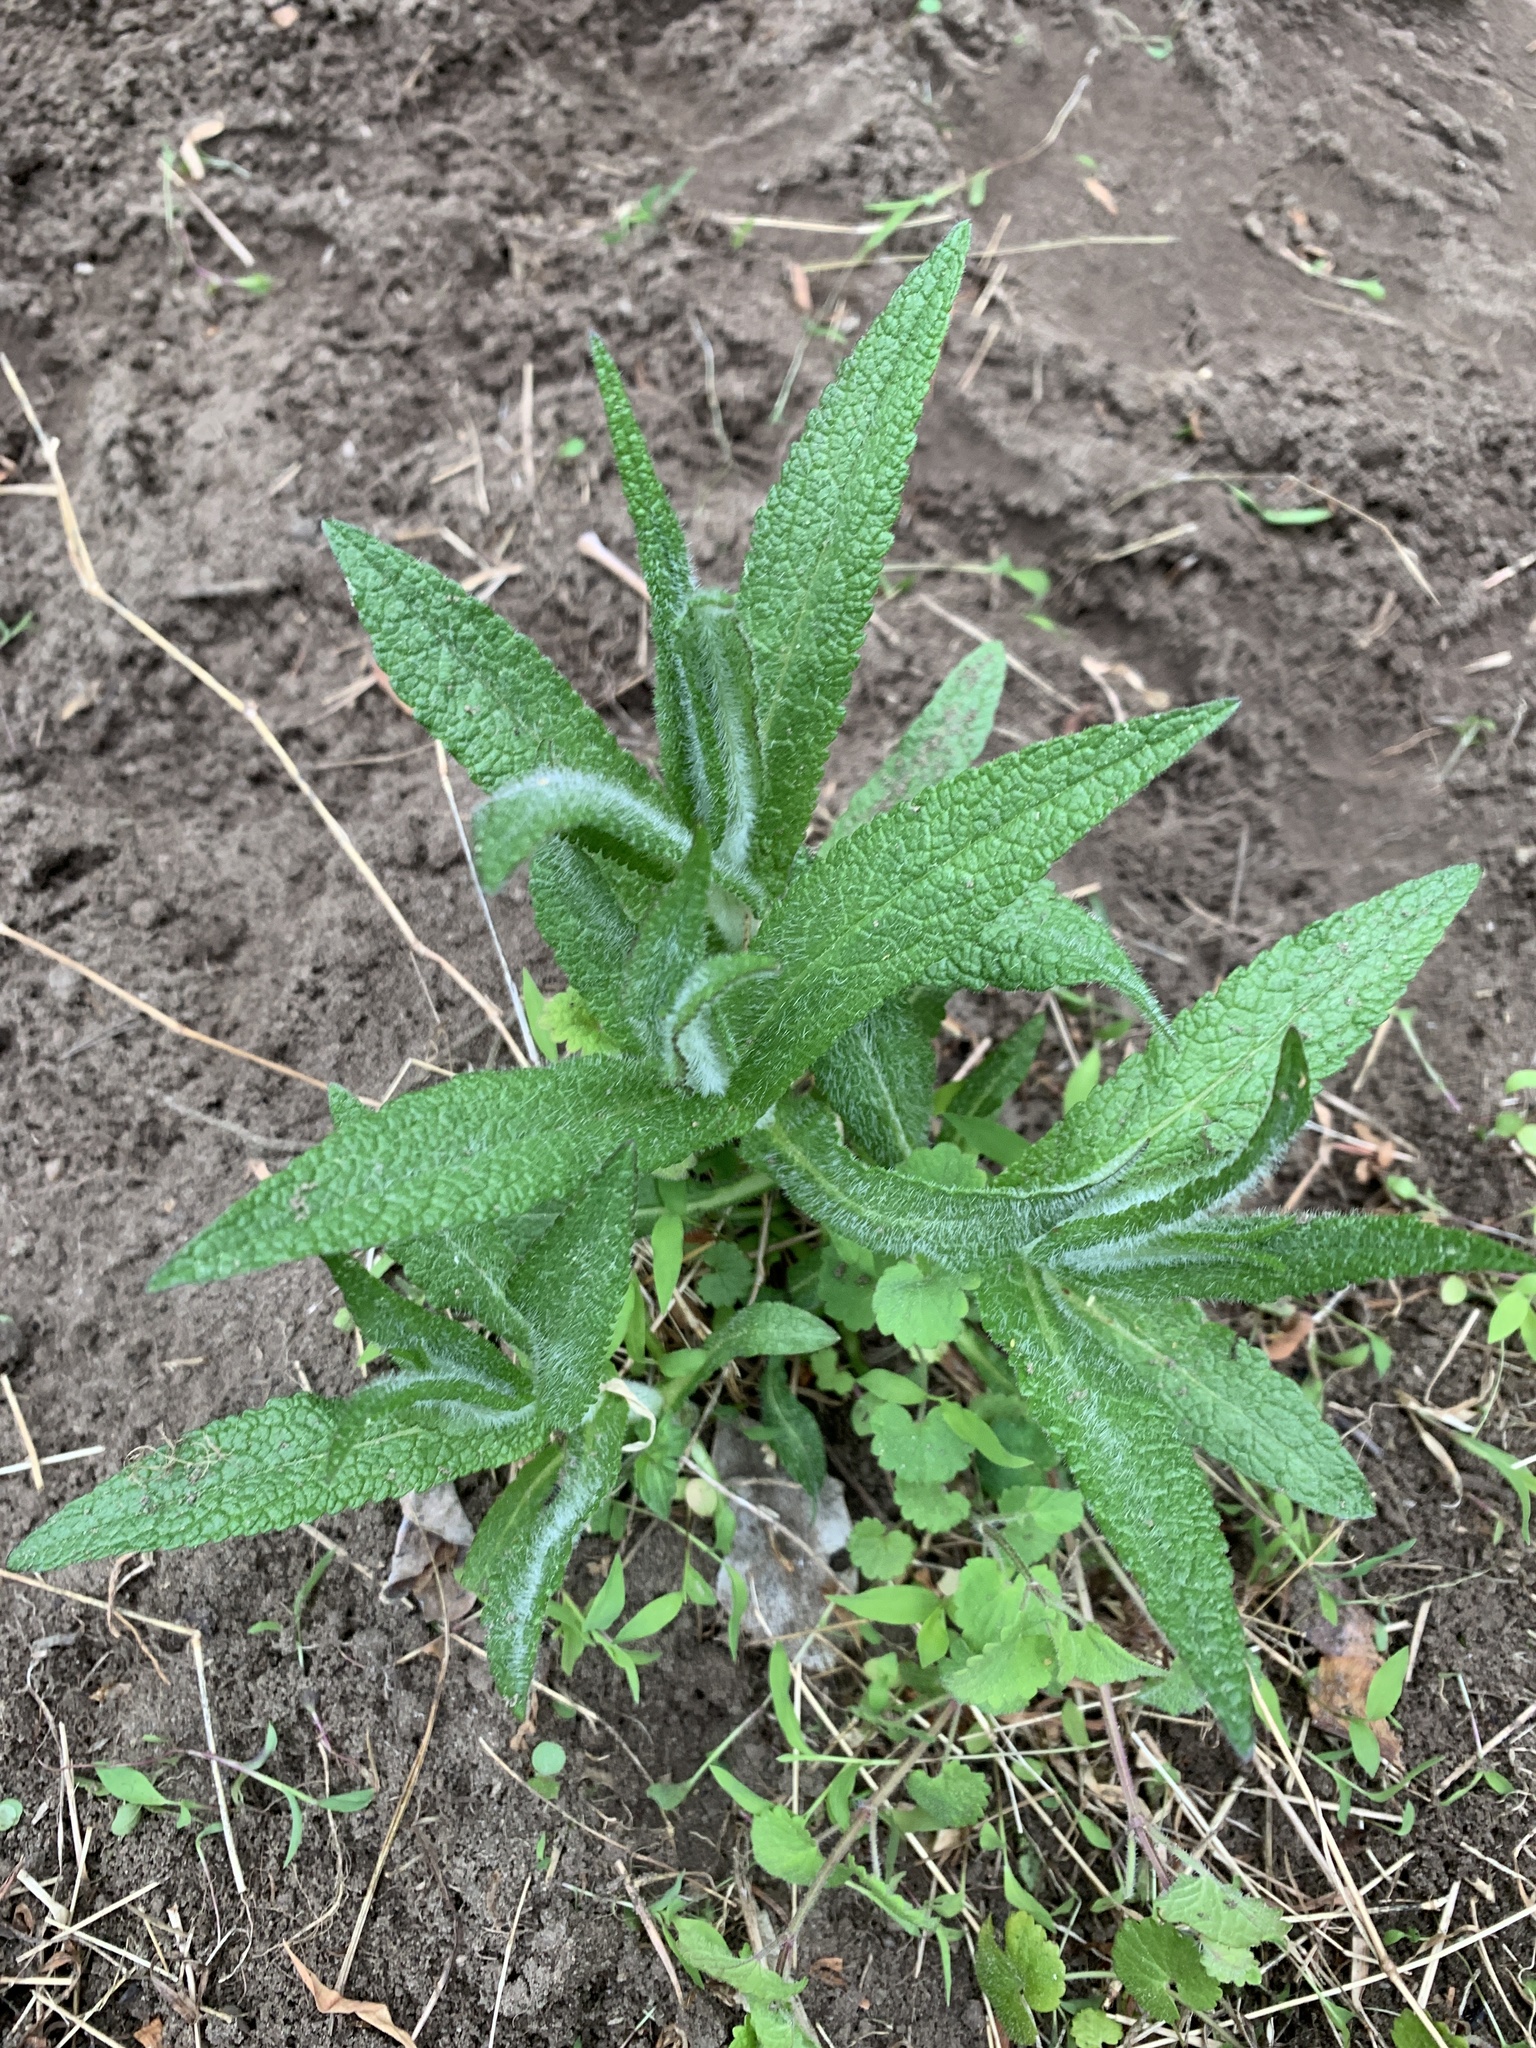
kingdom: Plantae
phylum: Tracheophyta
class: Magnoliopsida
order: Asterales
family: Asteraceae
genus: Eupatorium
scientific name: Eupatorium perfoliatum
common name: Boneset
